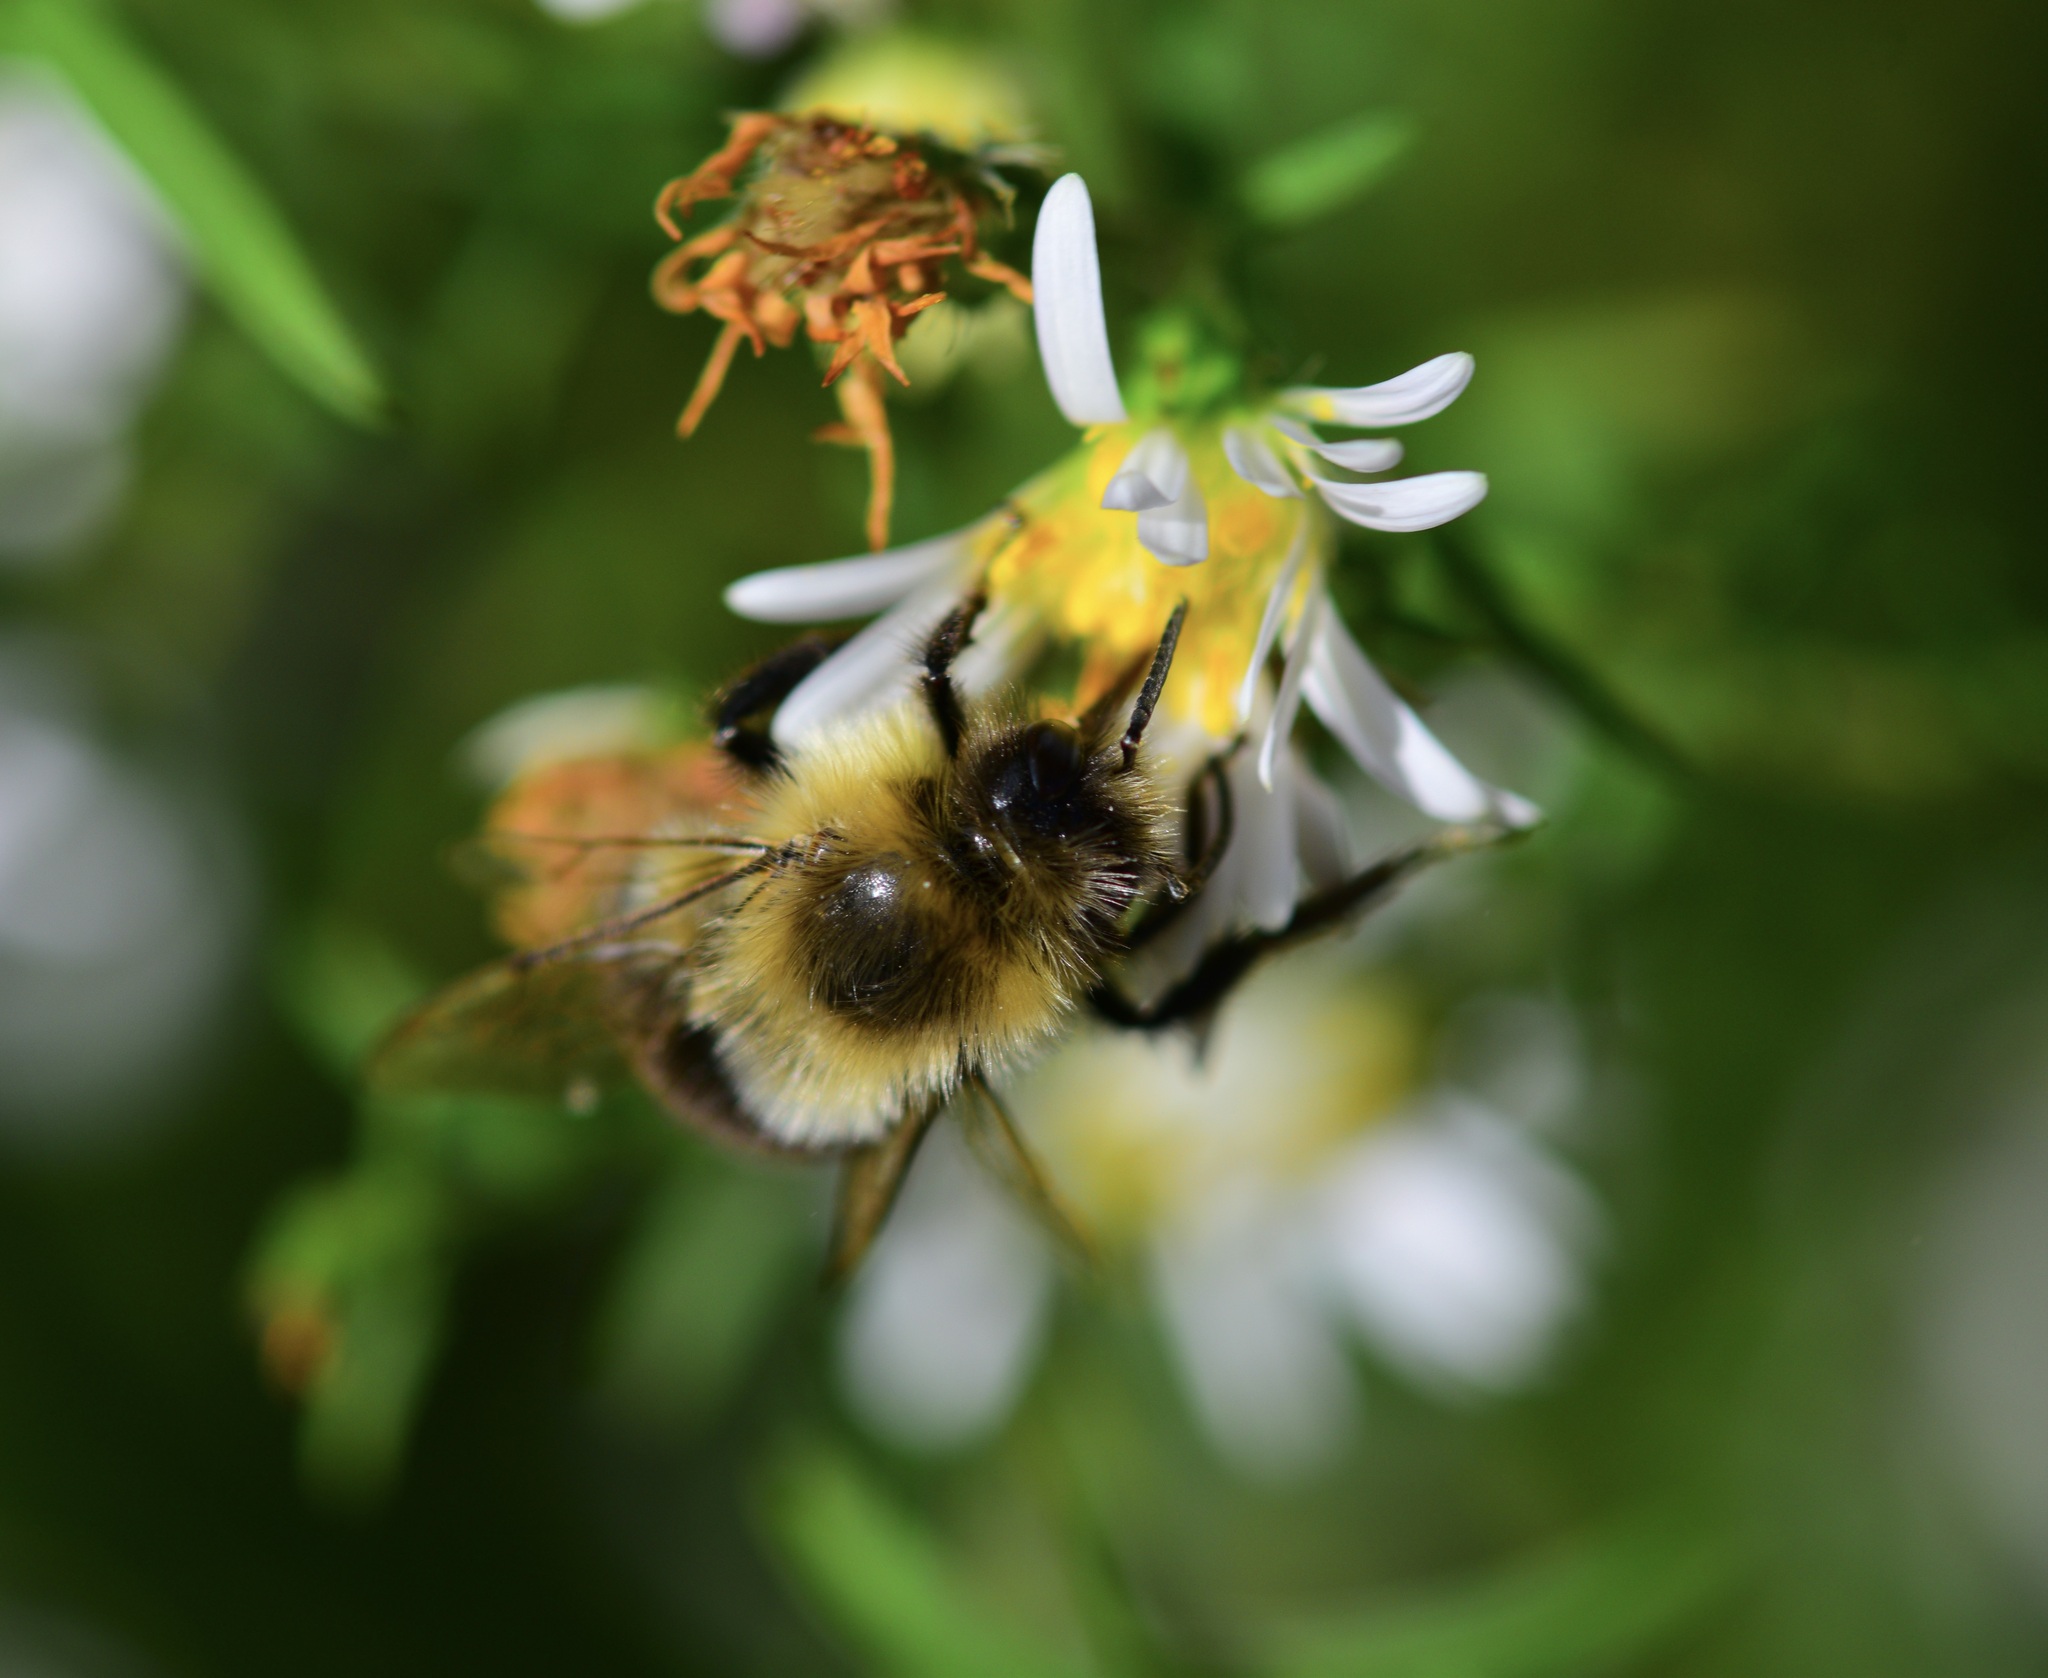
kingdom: Animalia
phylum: Arthropoda
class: Insecta
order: Hymenoptera
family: Apidae
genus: Bombus
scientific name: Bombus impatiens
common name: Common eastern bumble bee
